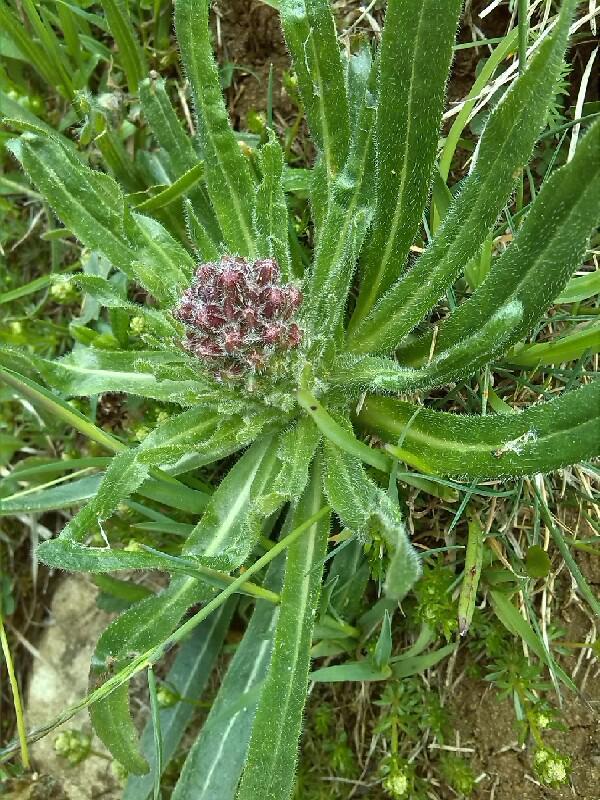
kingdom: Plantae
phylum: Tracheophyta
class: Magnoliopsida
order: Asterales
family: Campanulaceae
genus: Campanula
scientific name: Campanula thyrsoides
